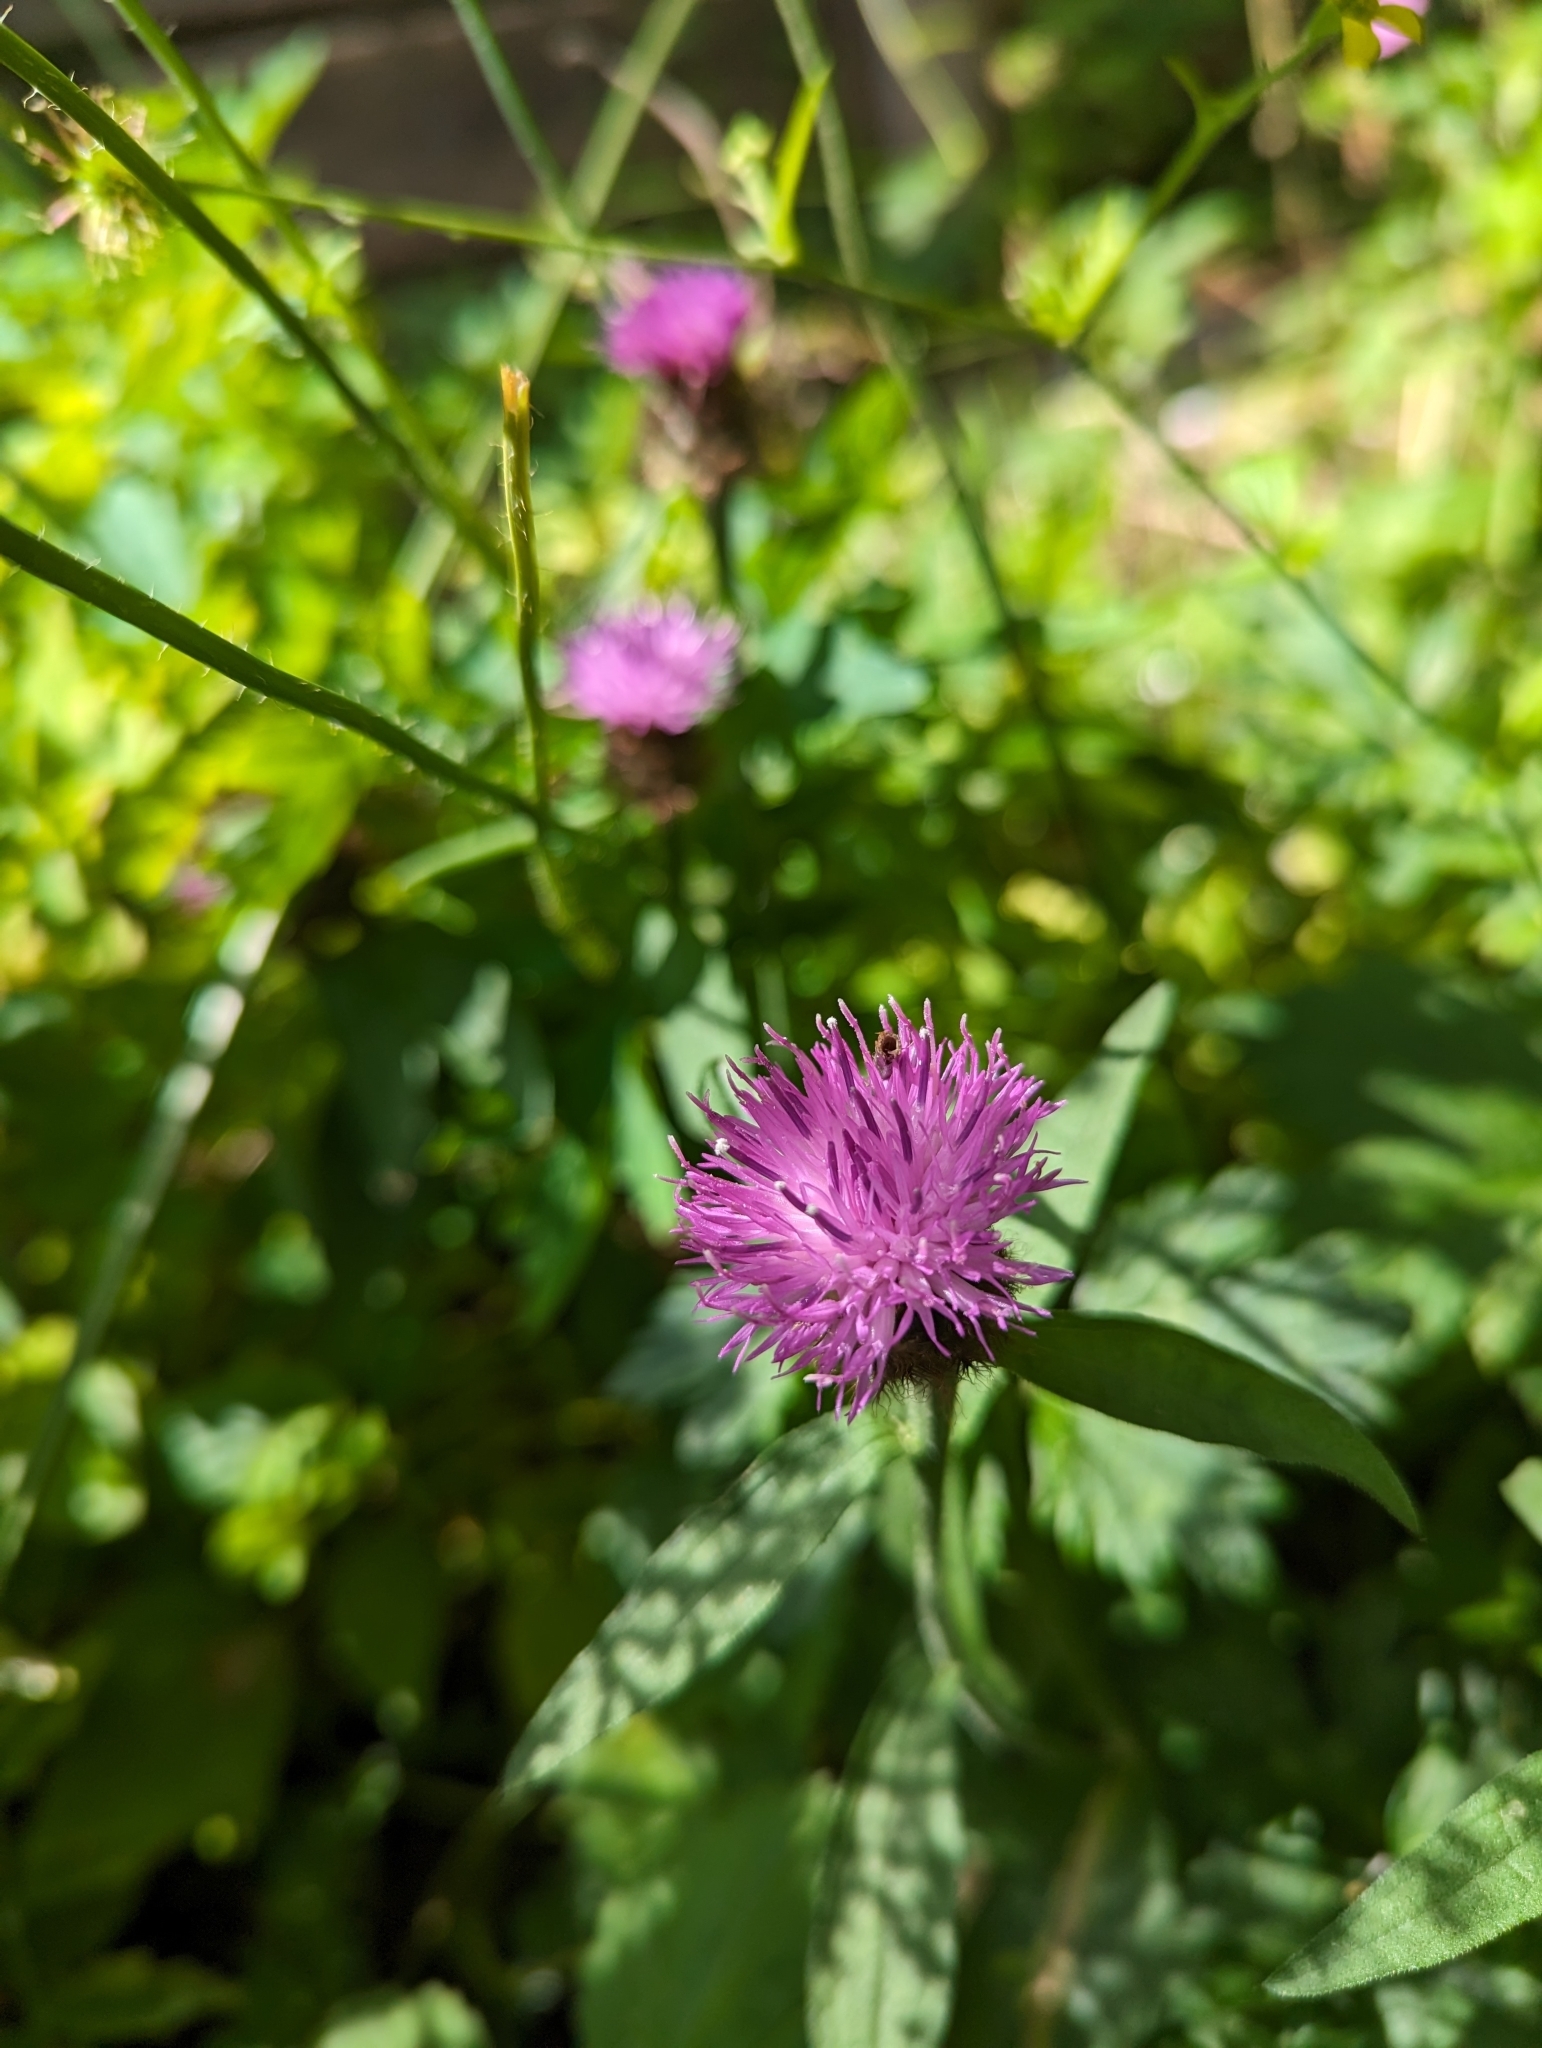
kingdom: Plantae
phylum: Tracheophyta
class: Magnoliopsida
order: Asterales
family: Asteraceae
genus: Centaurea
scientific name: Centaurea nigra
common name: Lesser knapweed
